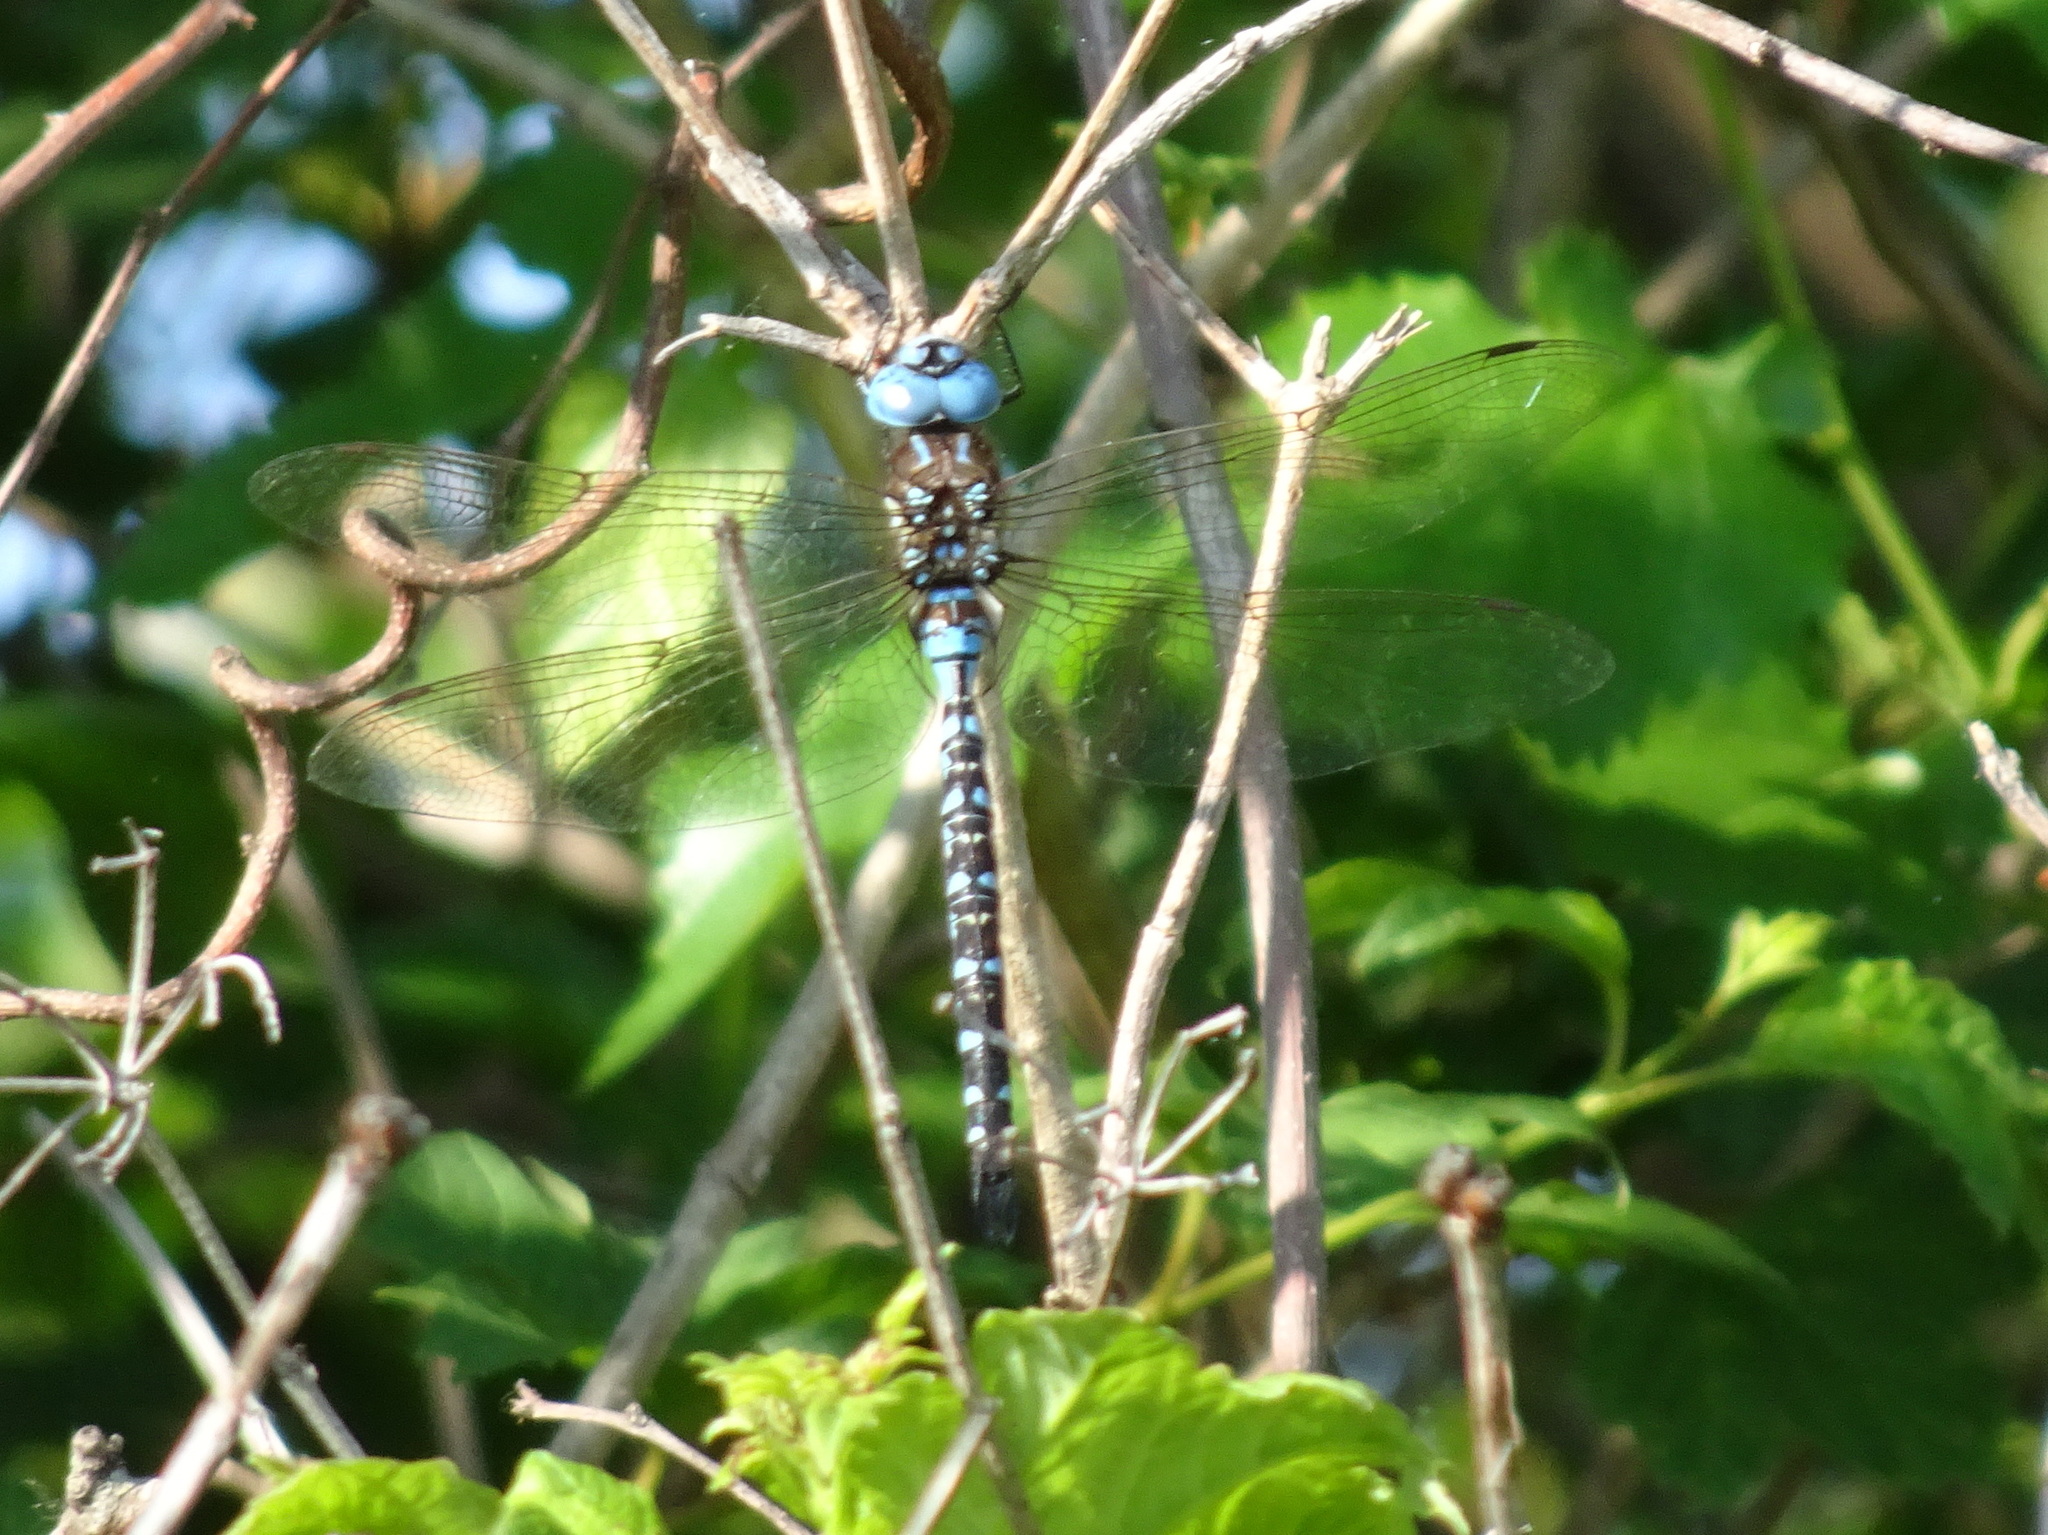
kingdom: Animalia
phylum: Arthropoda
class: Insecta
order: Odonata
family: Aeshnidae
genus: Rhionaeschna
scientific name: Rhionaeschna mutata
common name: Spatterdock darner
